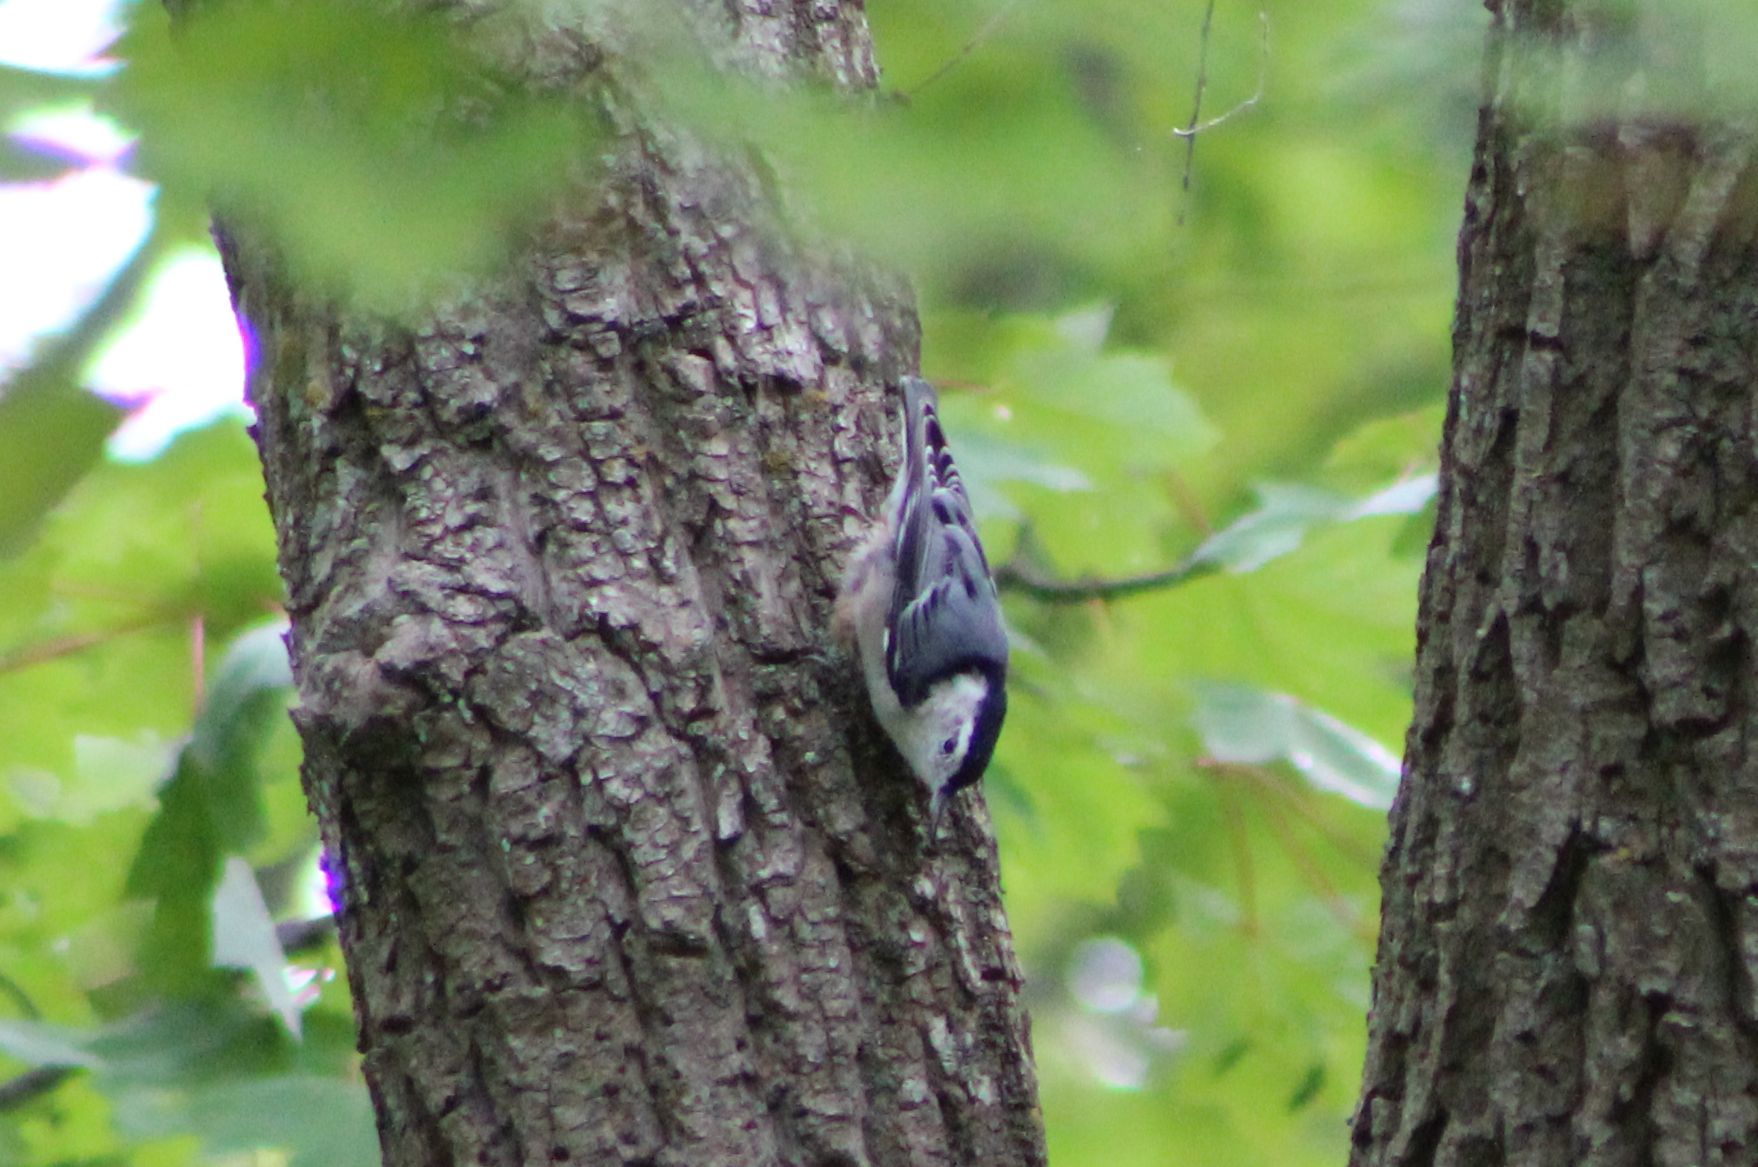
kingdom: Animalia
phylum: Chordata
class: Aves
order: Passeriformes
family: Sittidae
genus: Sitta
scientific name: Sitta carolinensis
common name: White-breasted nuthatch
